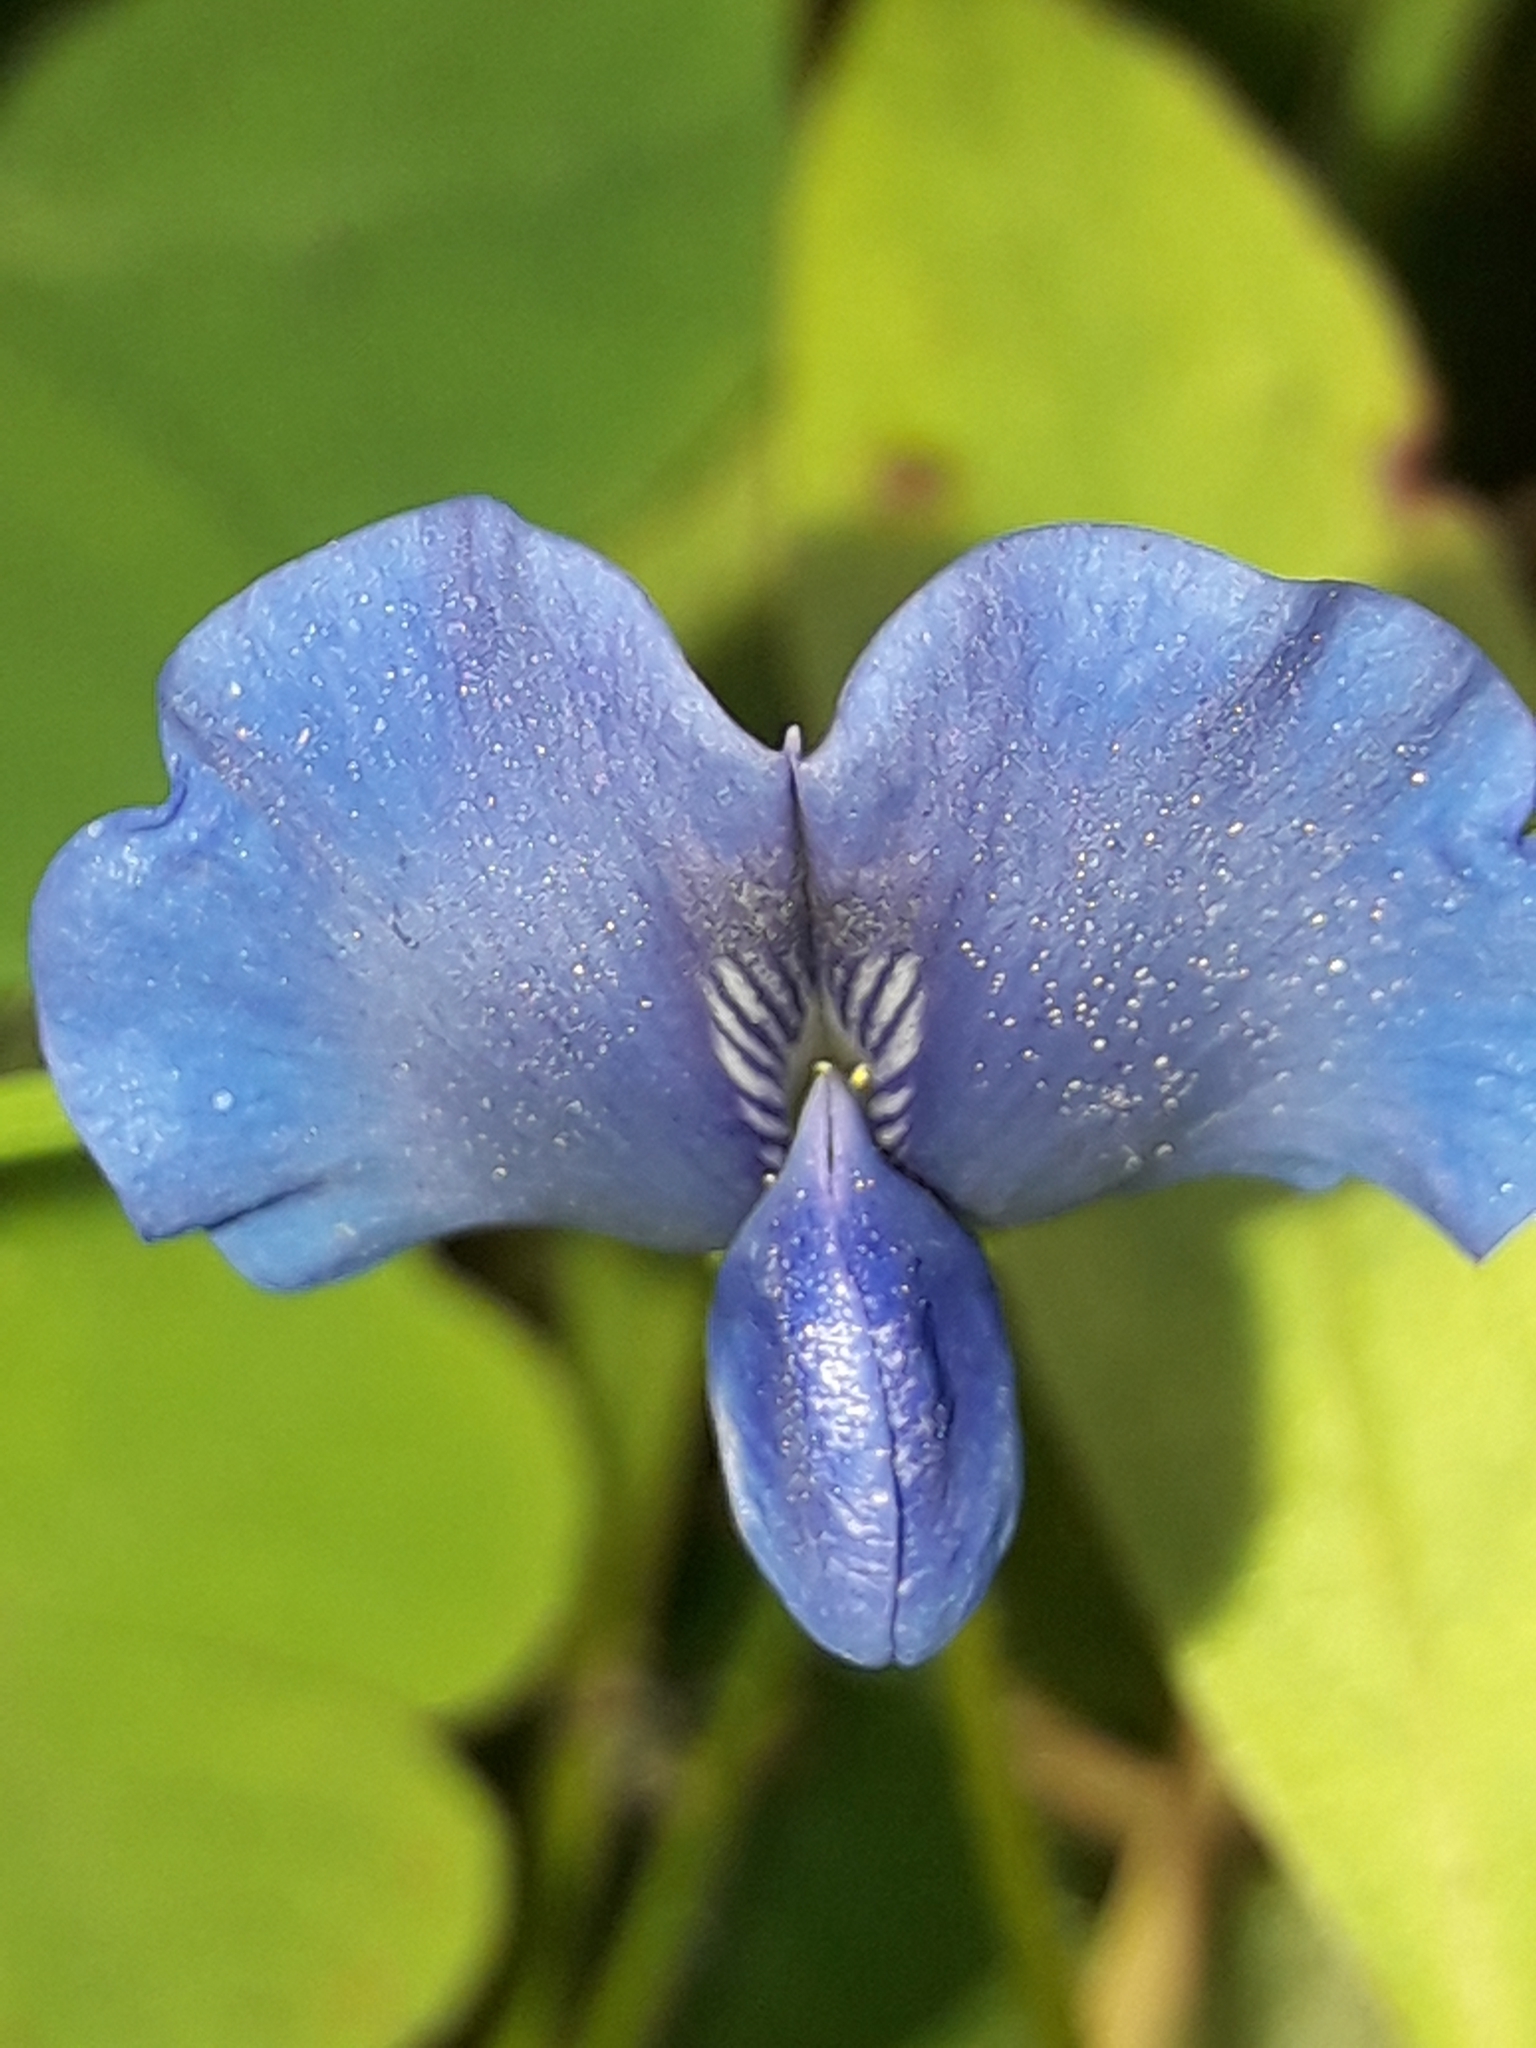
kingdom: Plantae
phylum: Tracheophyta
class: Magnoliopsida
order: Fabales
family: Fabaceae
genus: Parochetus
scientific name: Parochetus communis
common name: Blue oxalis
